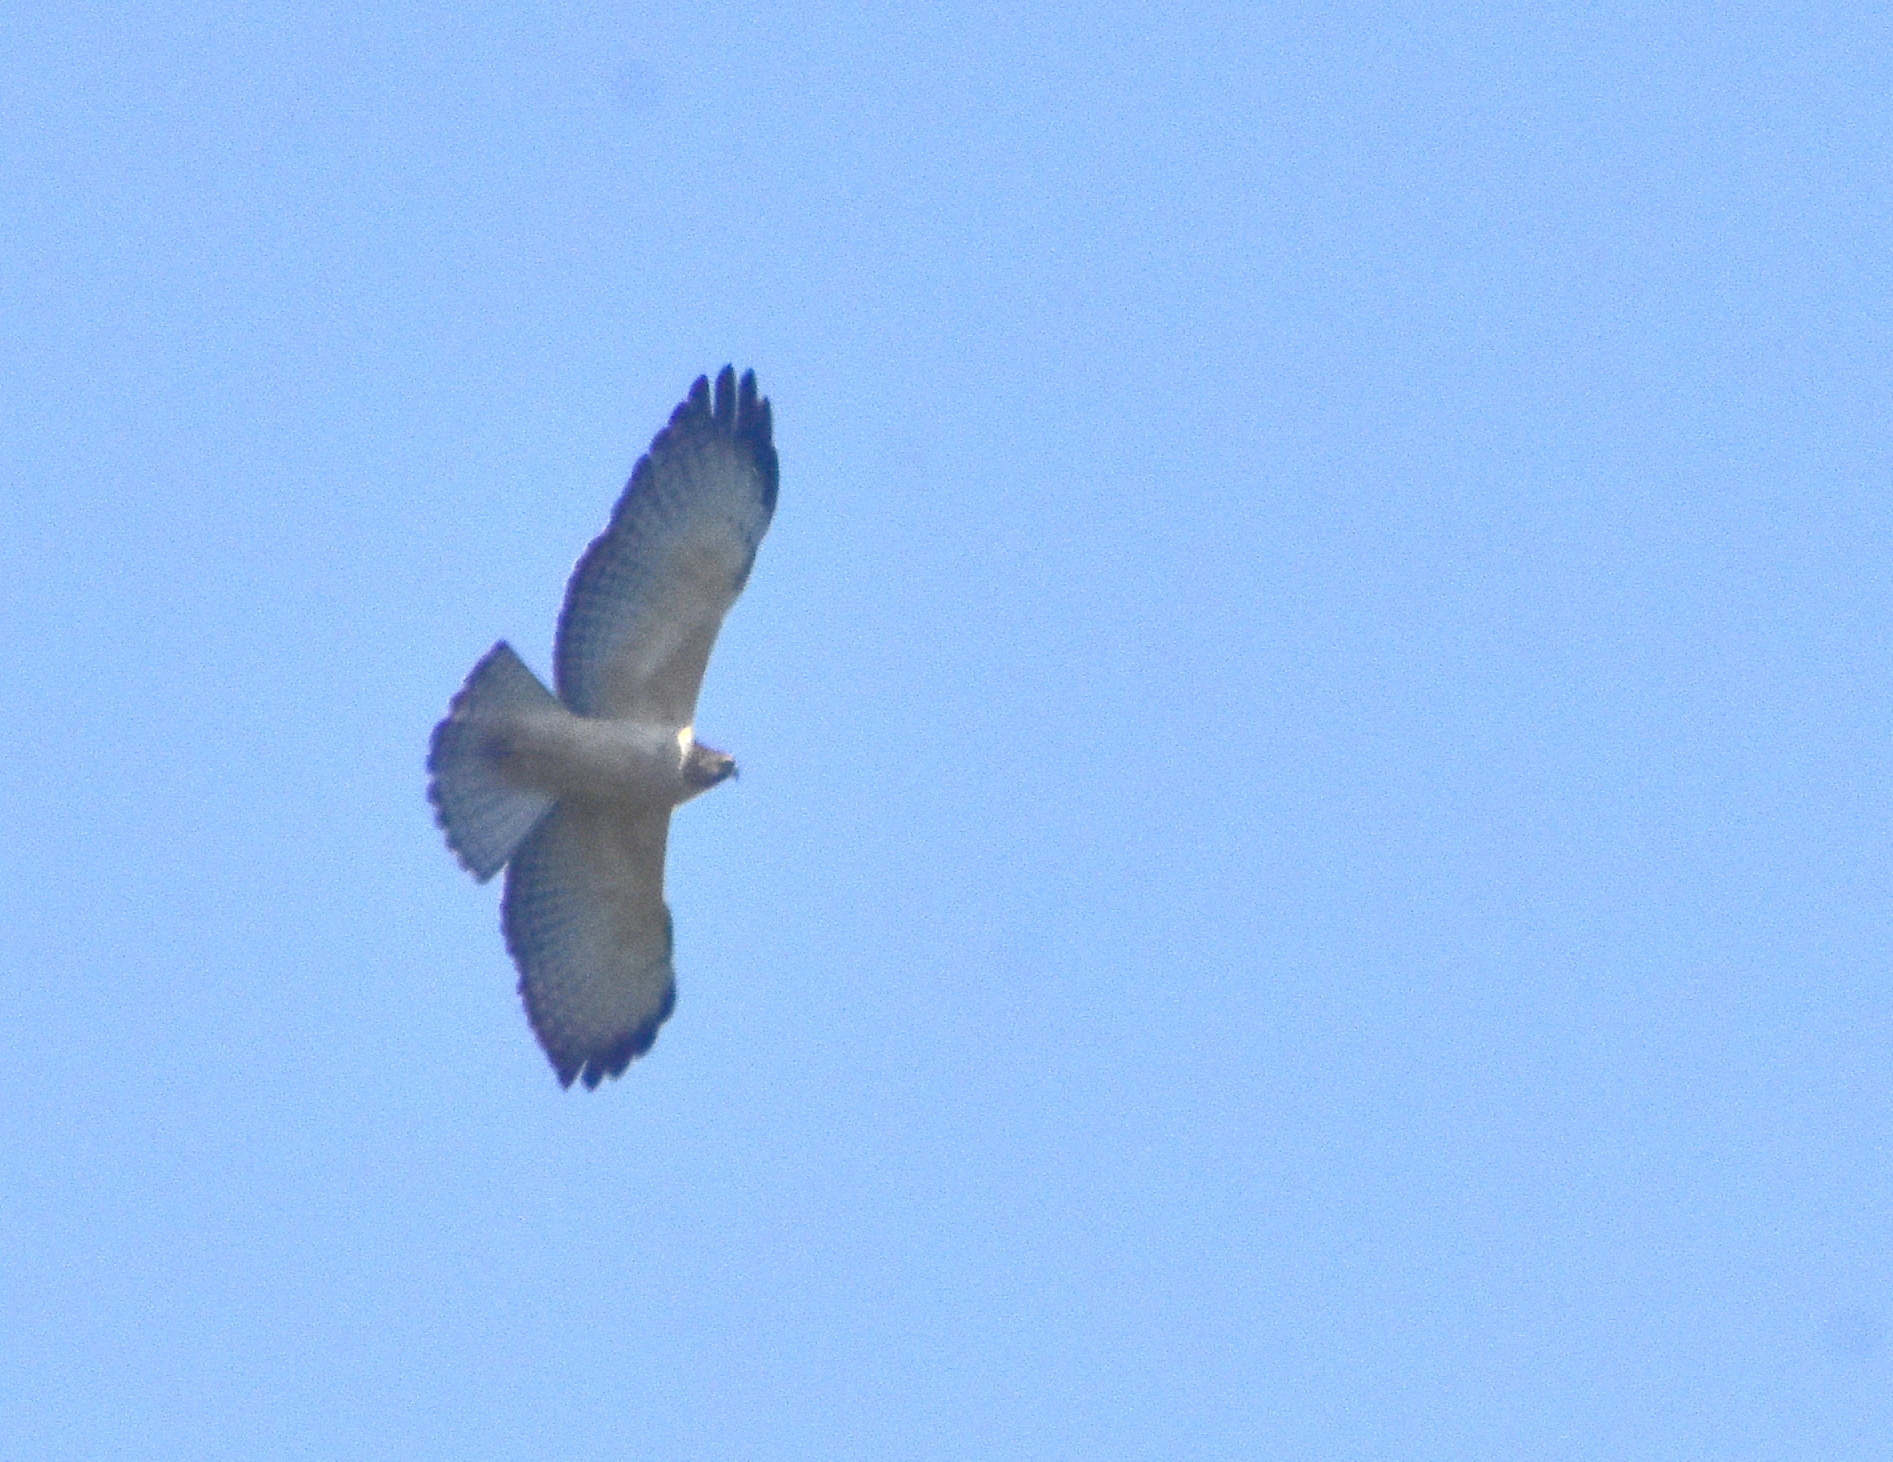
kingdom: Animalia
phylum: Chordata
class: Aves
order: Accipitriformes
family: Accipitridae
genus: Buteo
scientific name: Buteo brachyurus
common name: Short-tailed hawk
